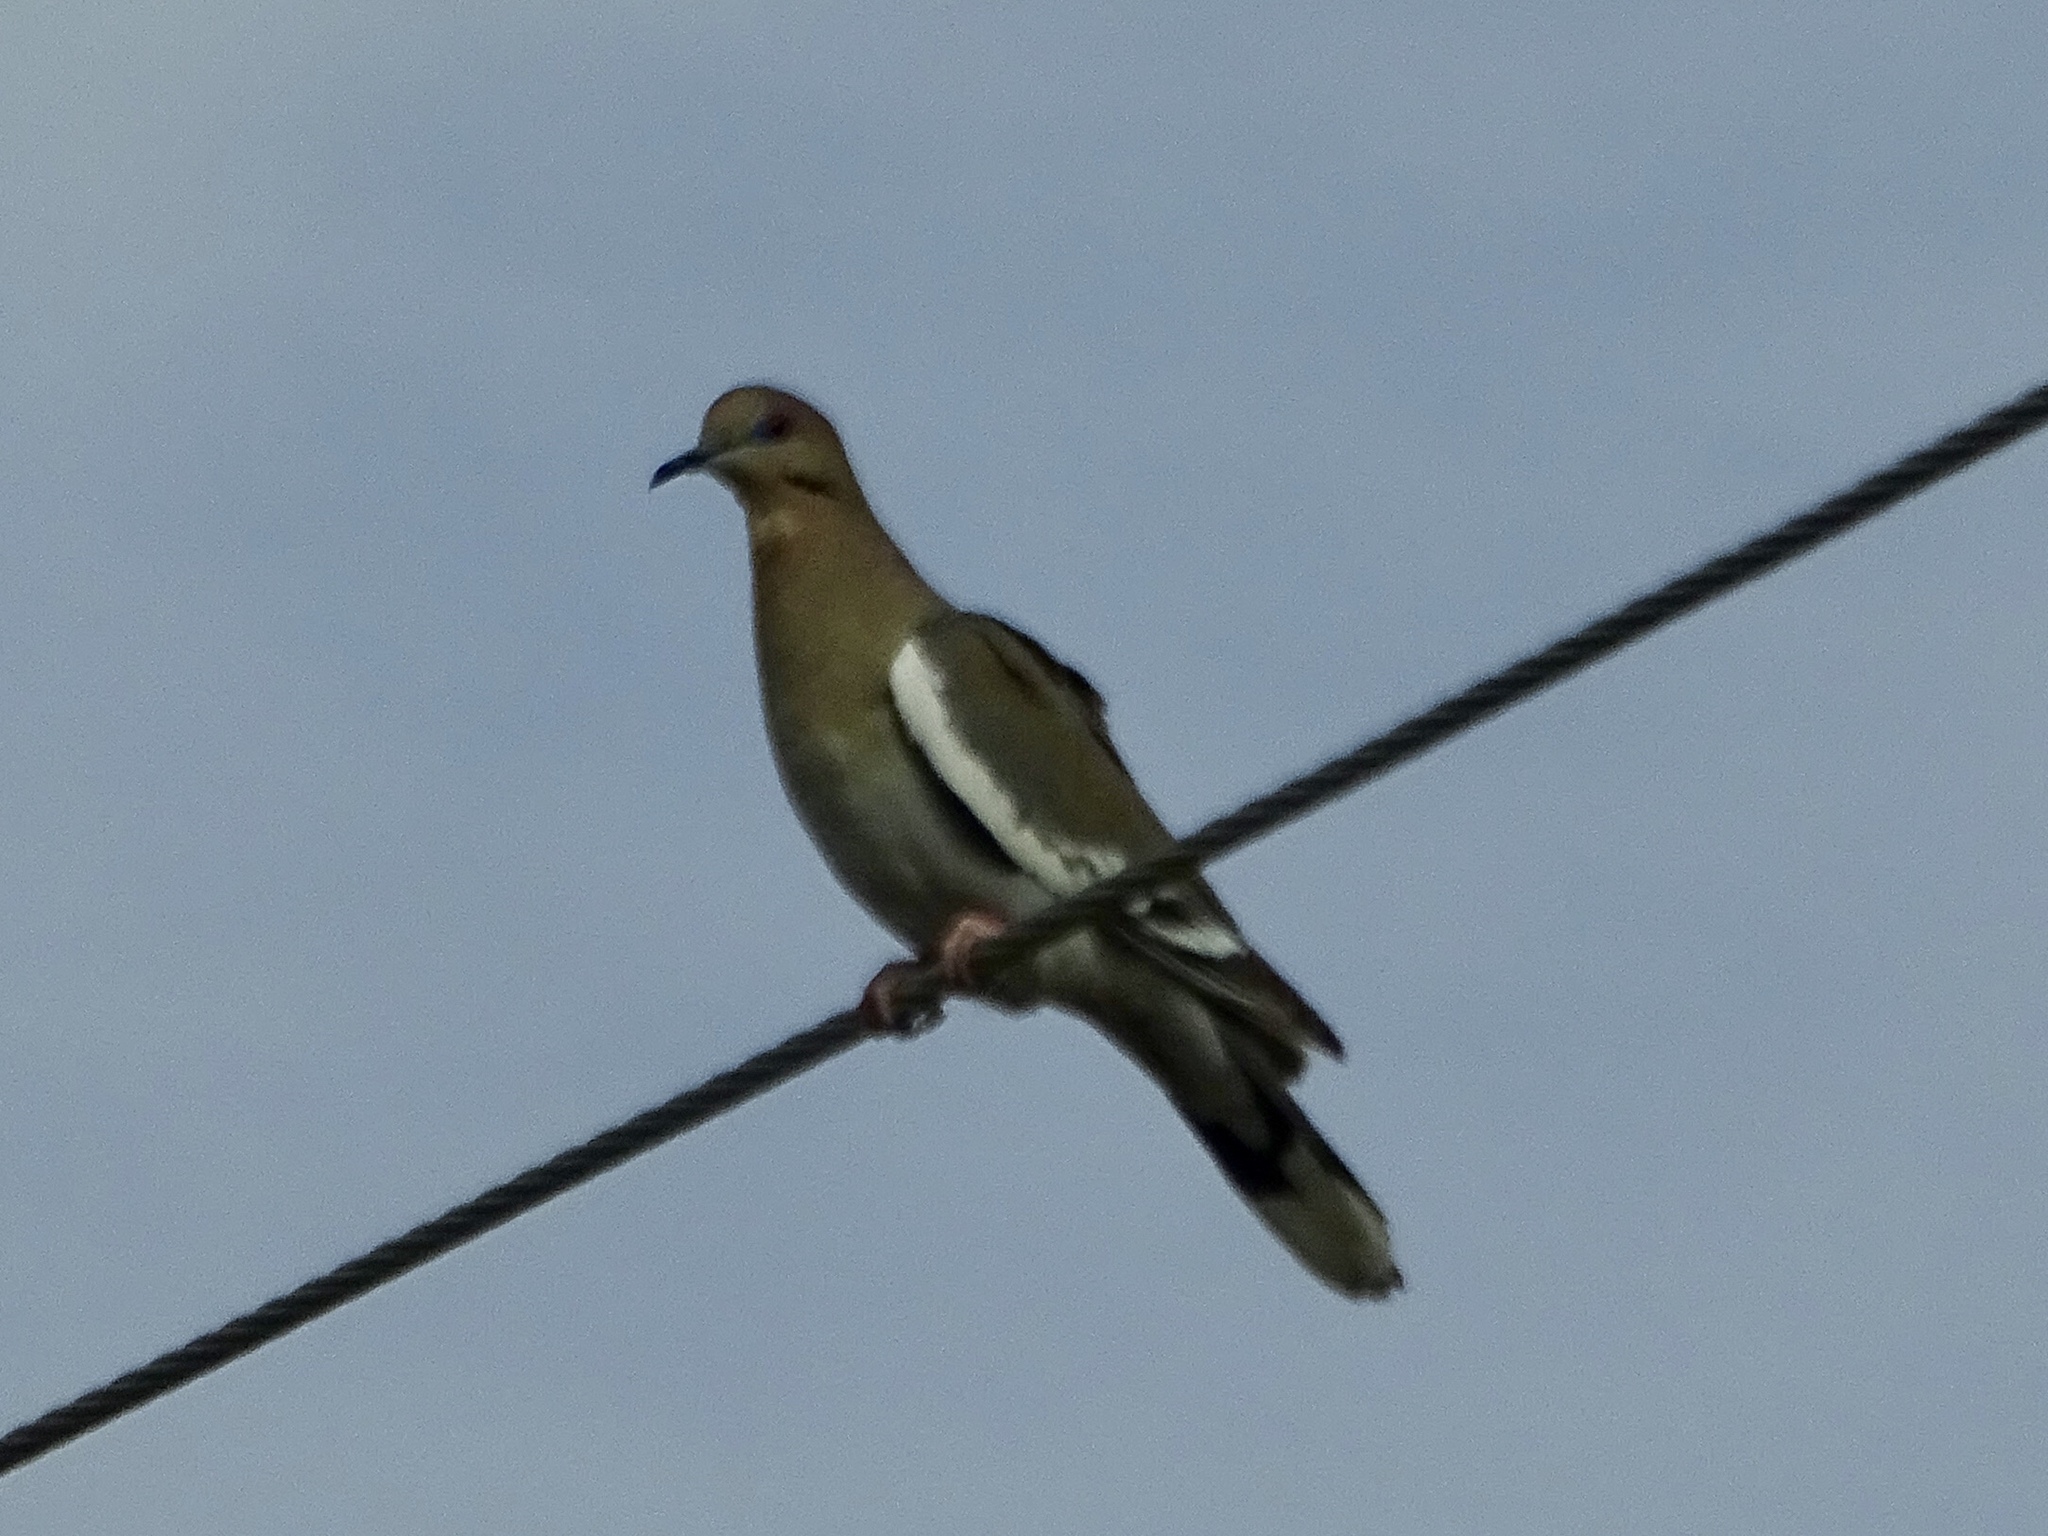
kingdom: Animalia
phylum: Chordata
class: Aves
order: Columbiformes
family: Columbidae
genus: Zenaida
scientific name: Zenaida asiatica
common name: White-winged dove
